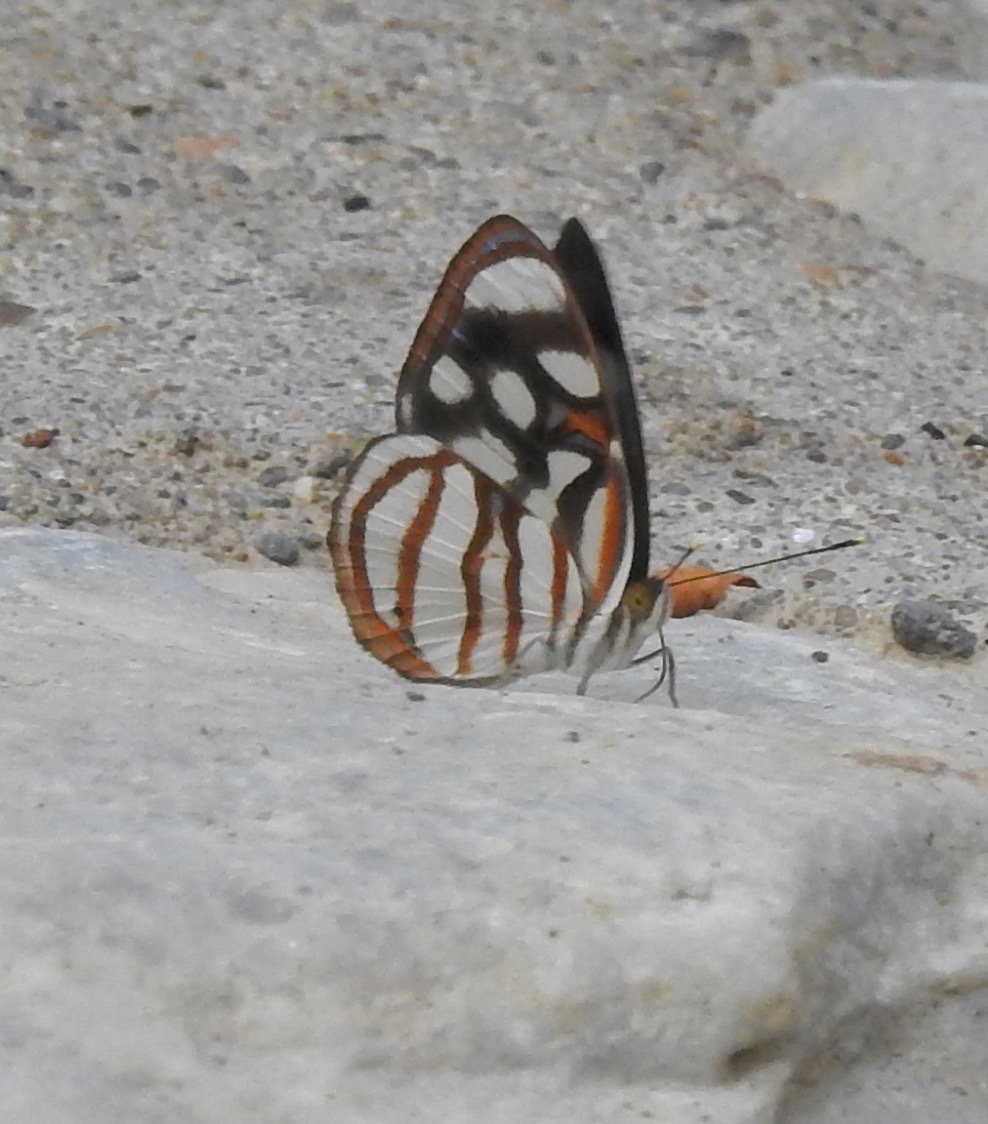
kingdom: Animalia
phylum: Arthropoda
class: Insecta
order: Lepidoptera
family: Nymphalidae
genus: Dynamine
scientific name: Dynamine chryseis
